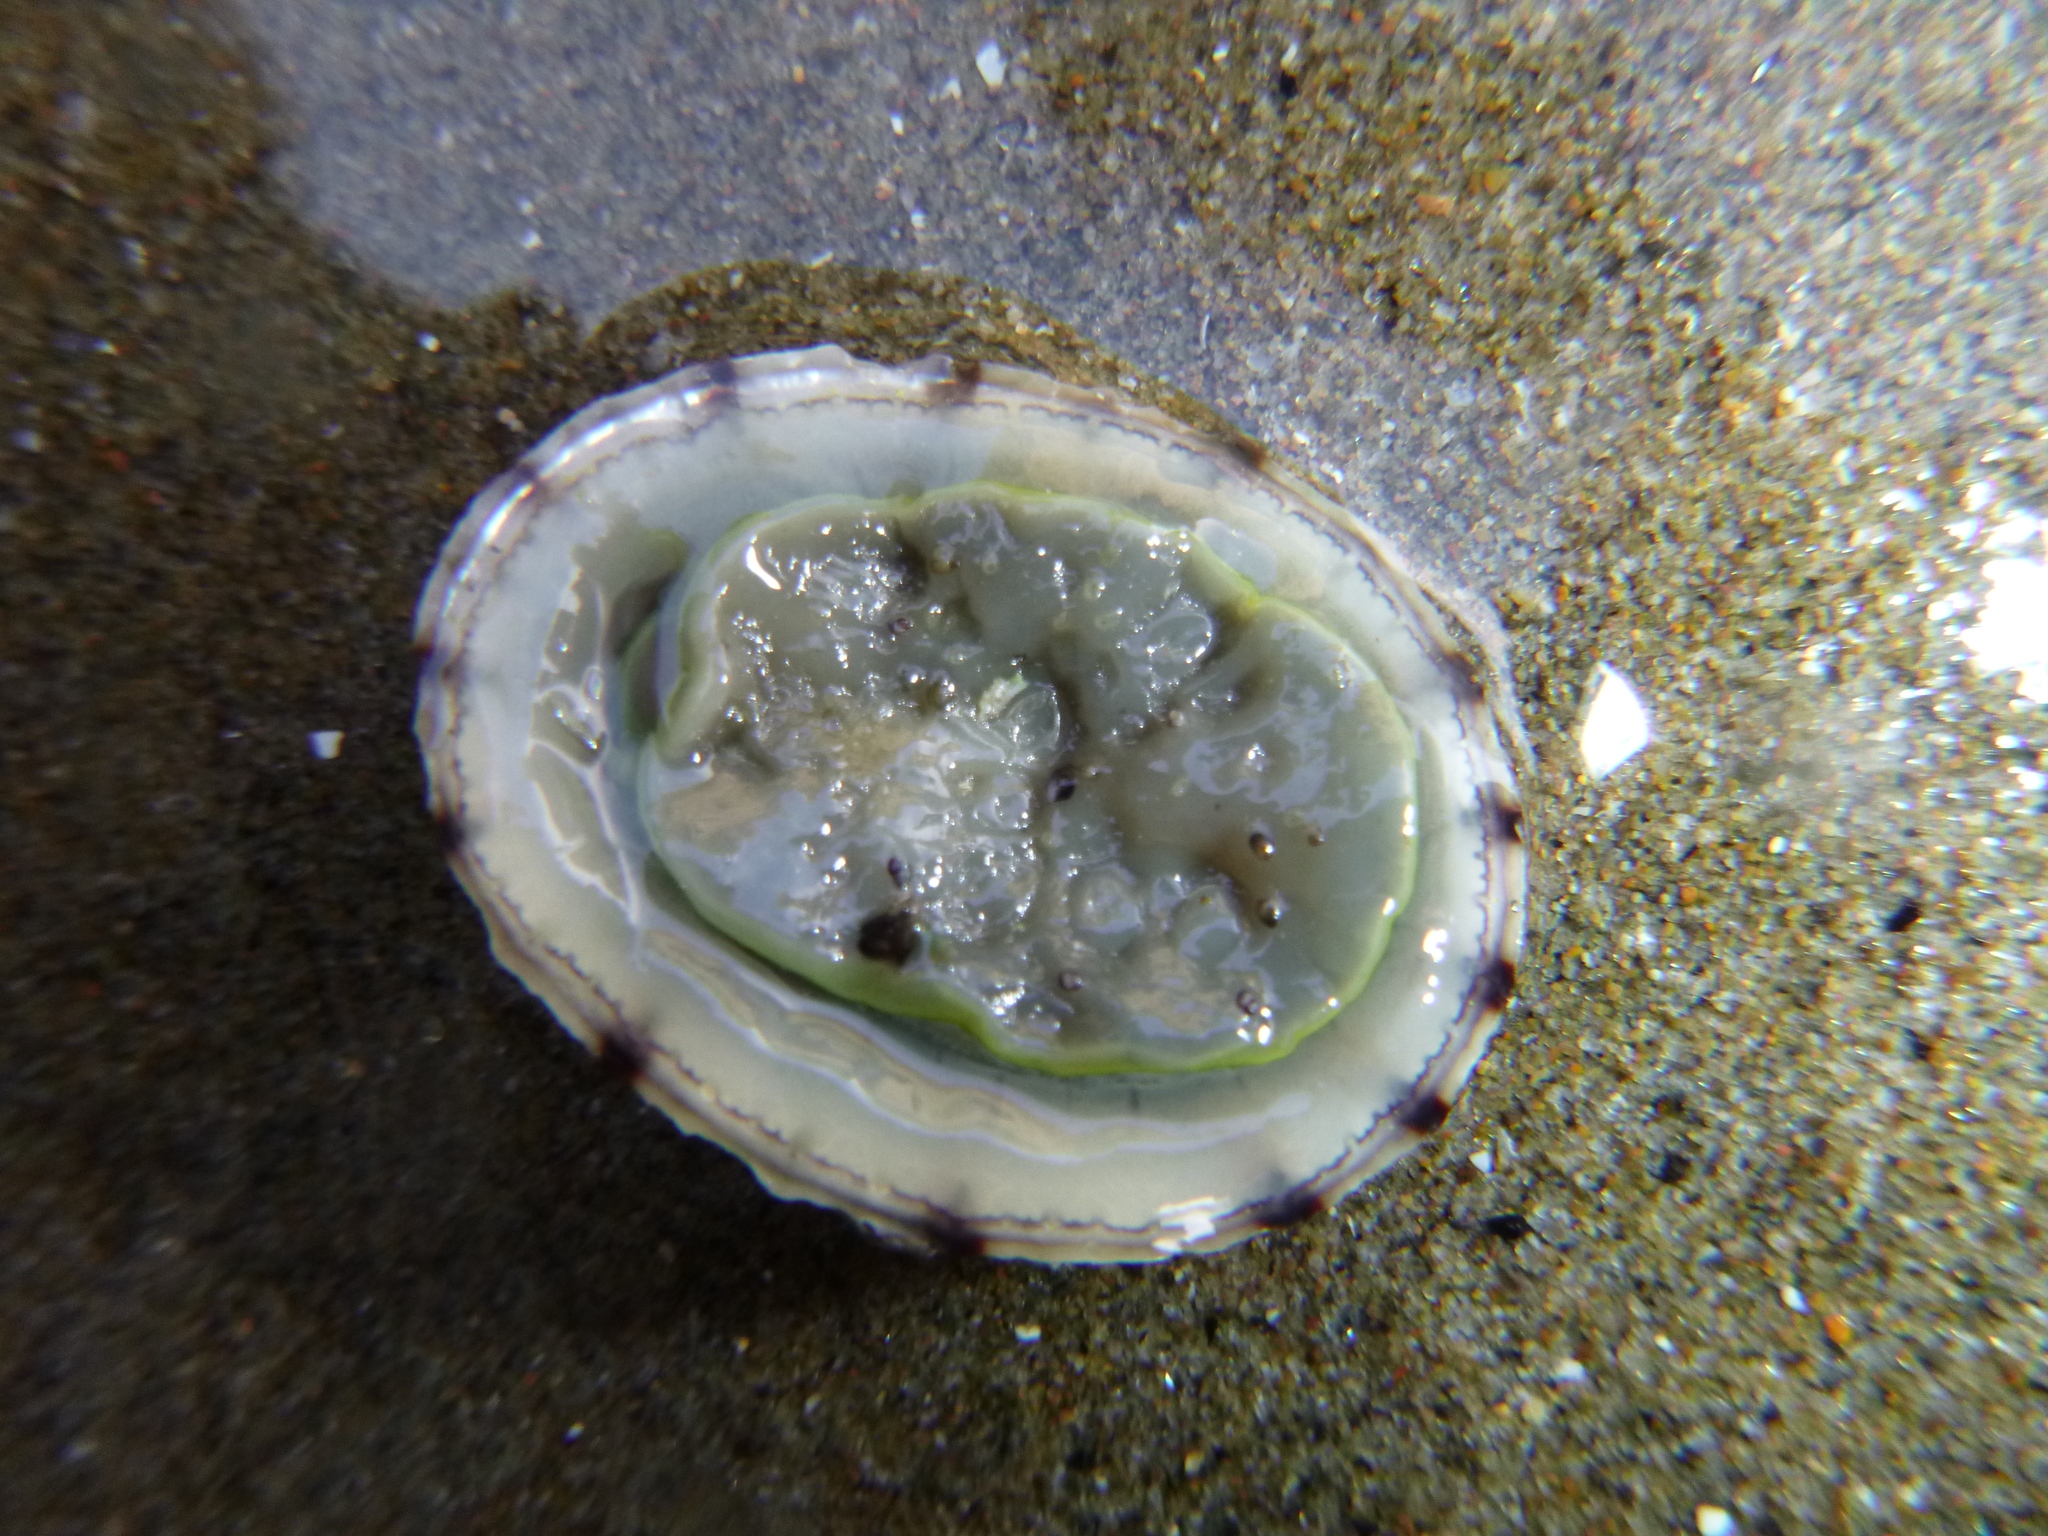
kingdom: Animalia
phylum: Mollusca
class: Gastropoda
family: Nacellidae
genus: Cellana
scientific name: Cellana radians
